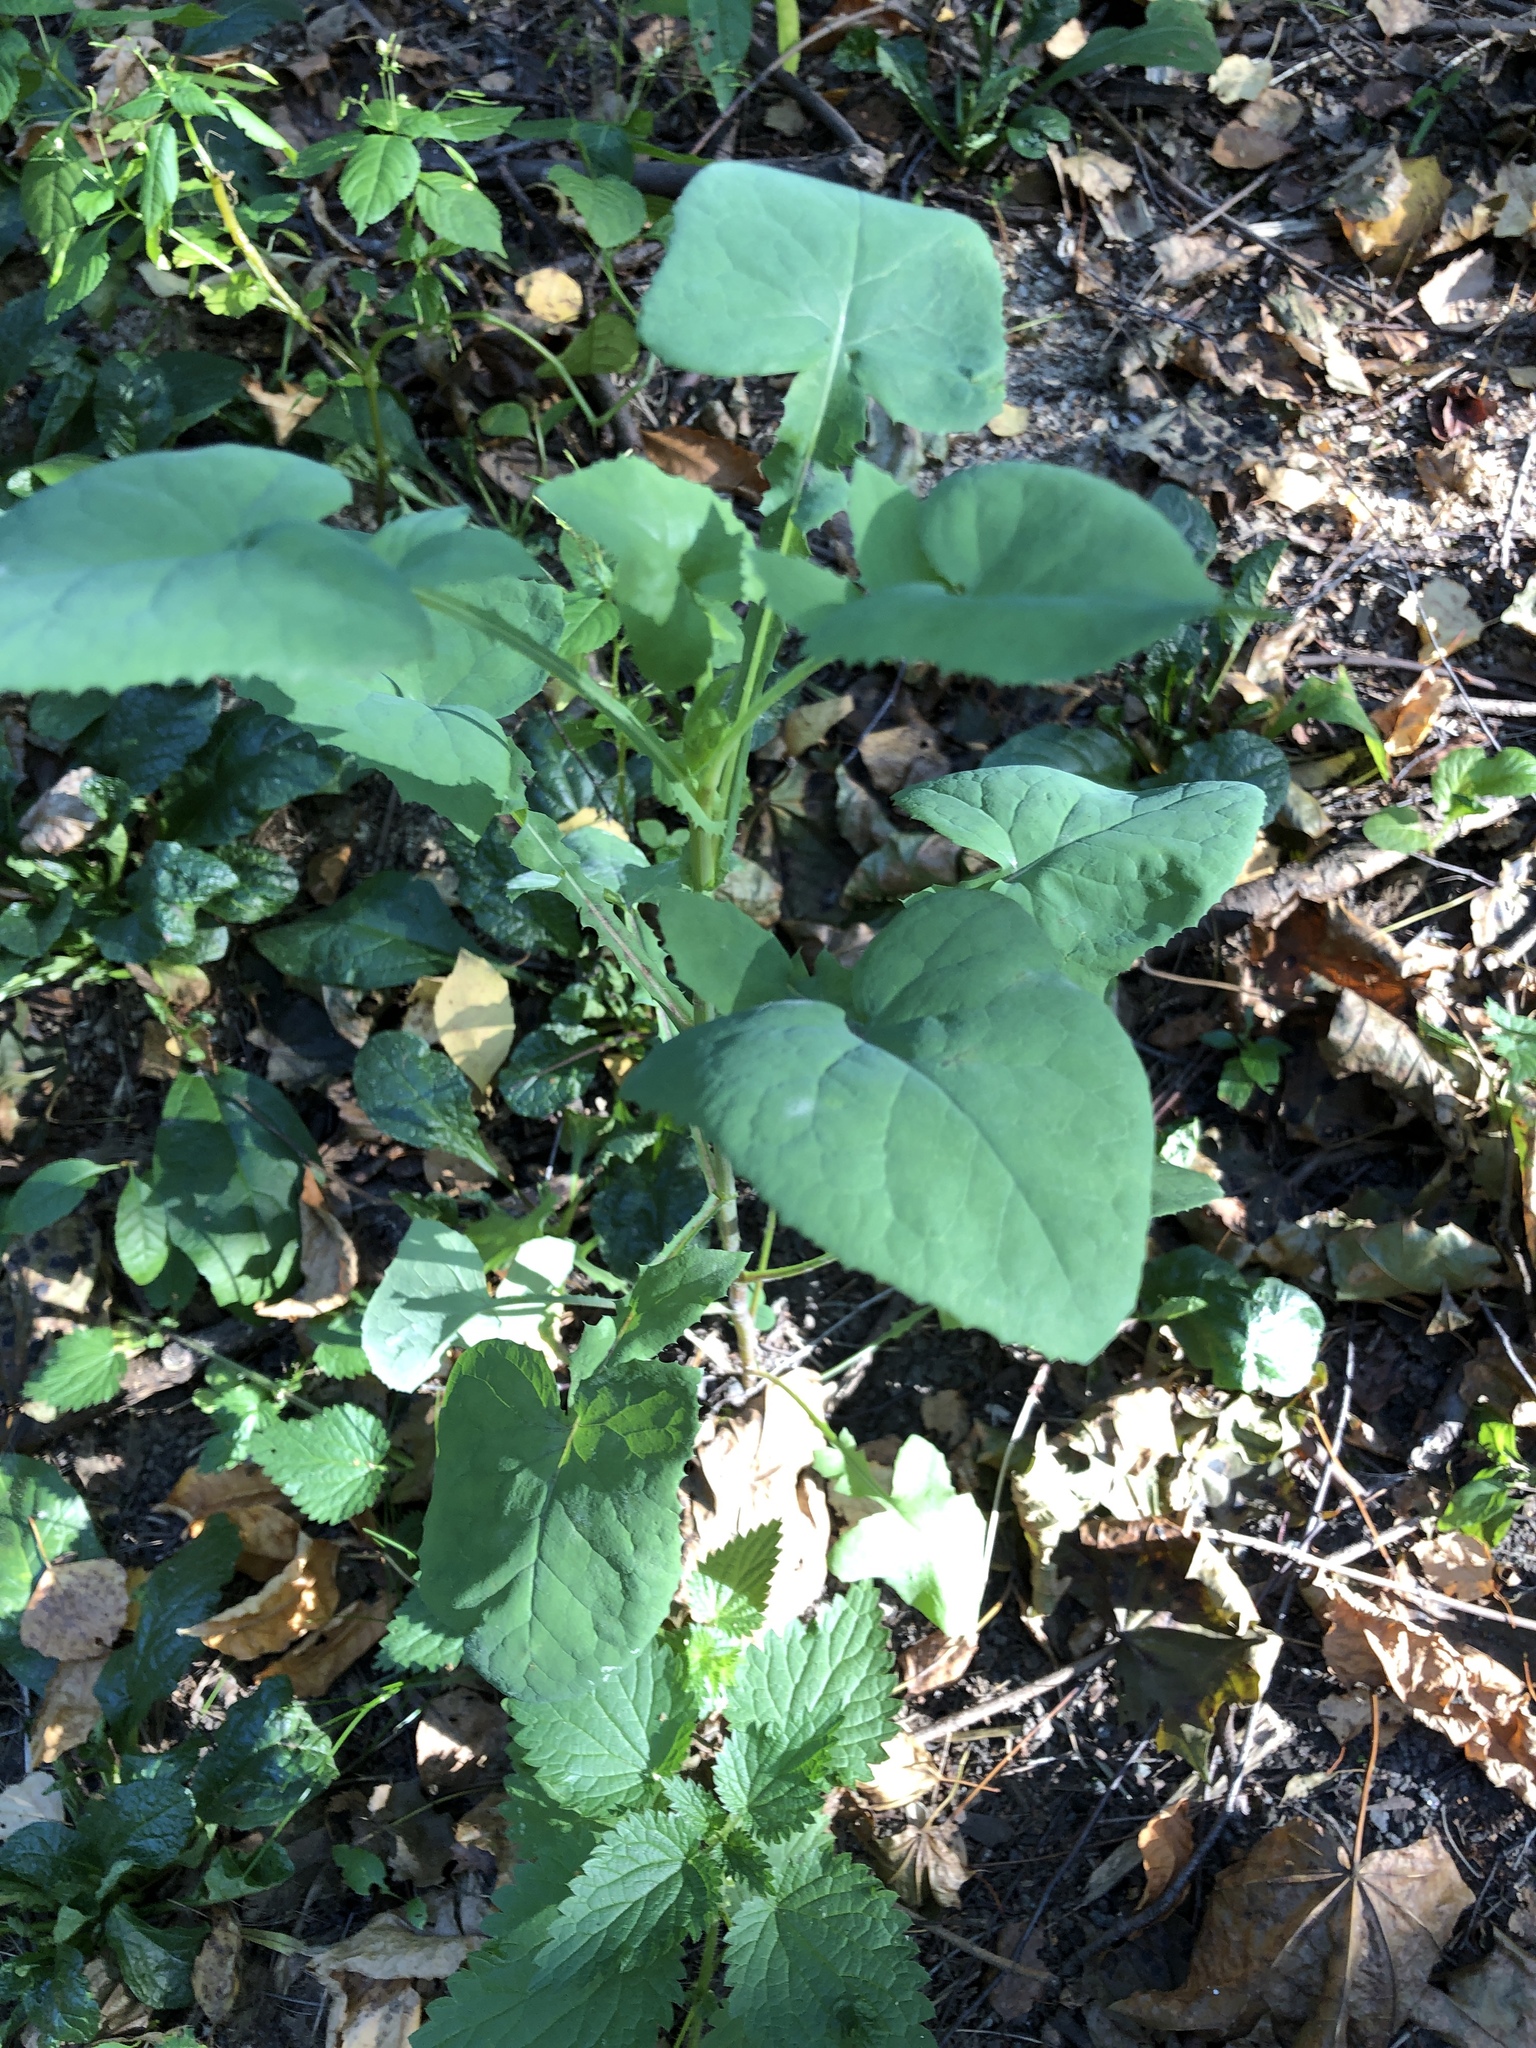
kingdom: Plantae
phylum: Tracheophyta
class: Magnoliopsida
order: Asterales
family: Asteraceae
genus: Sonchus
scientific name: Sonchus oleraceus
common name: Common sowthistle
